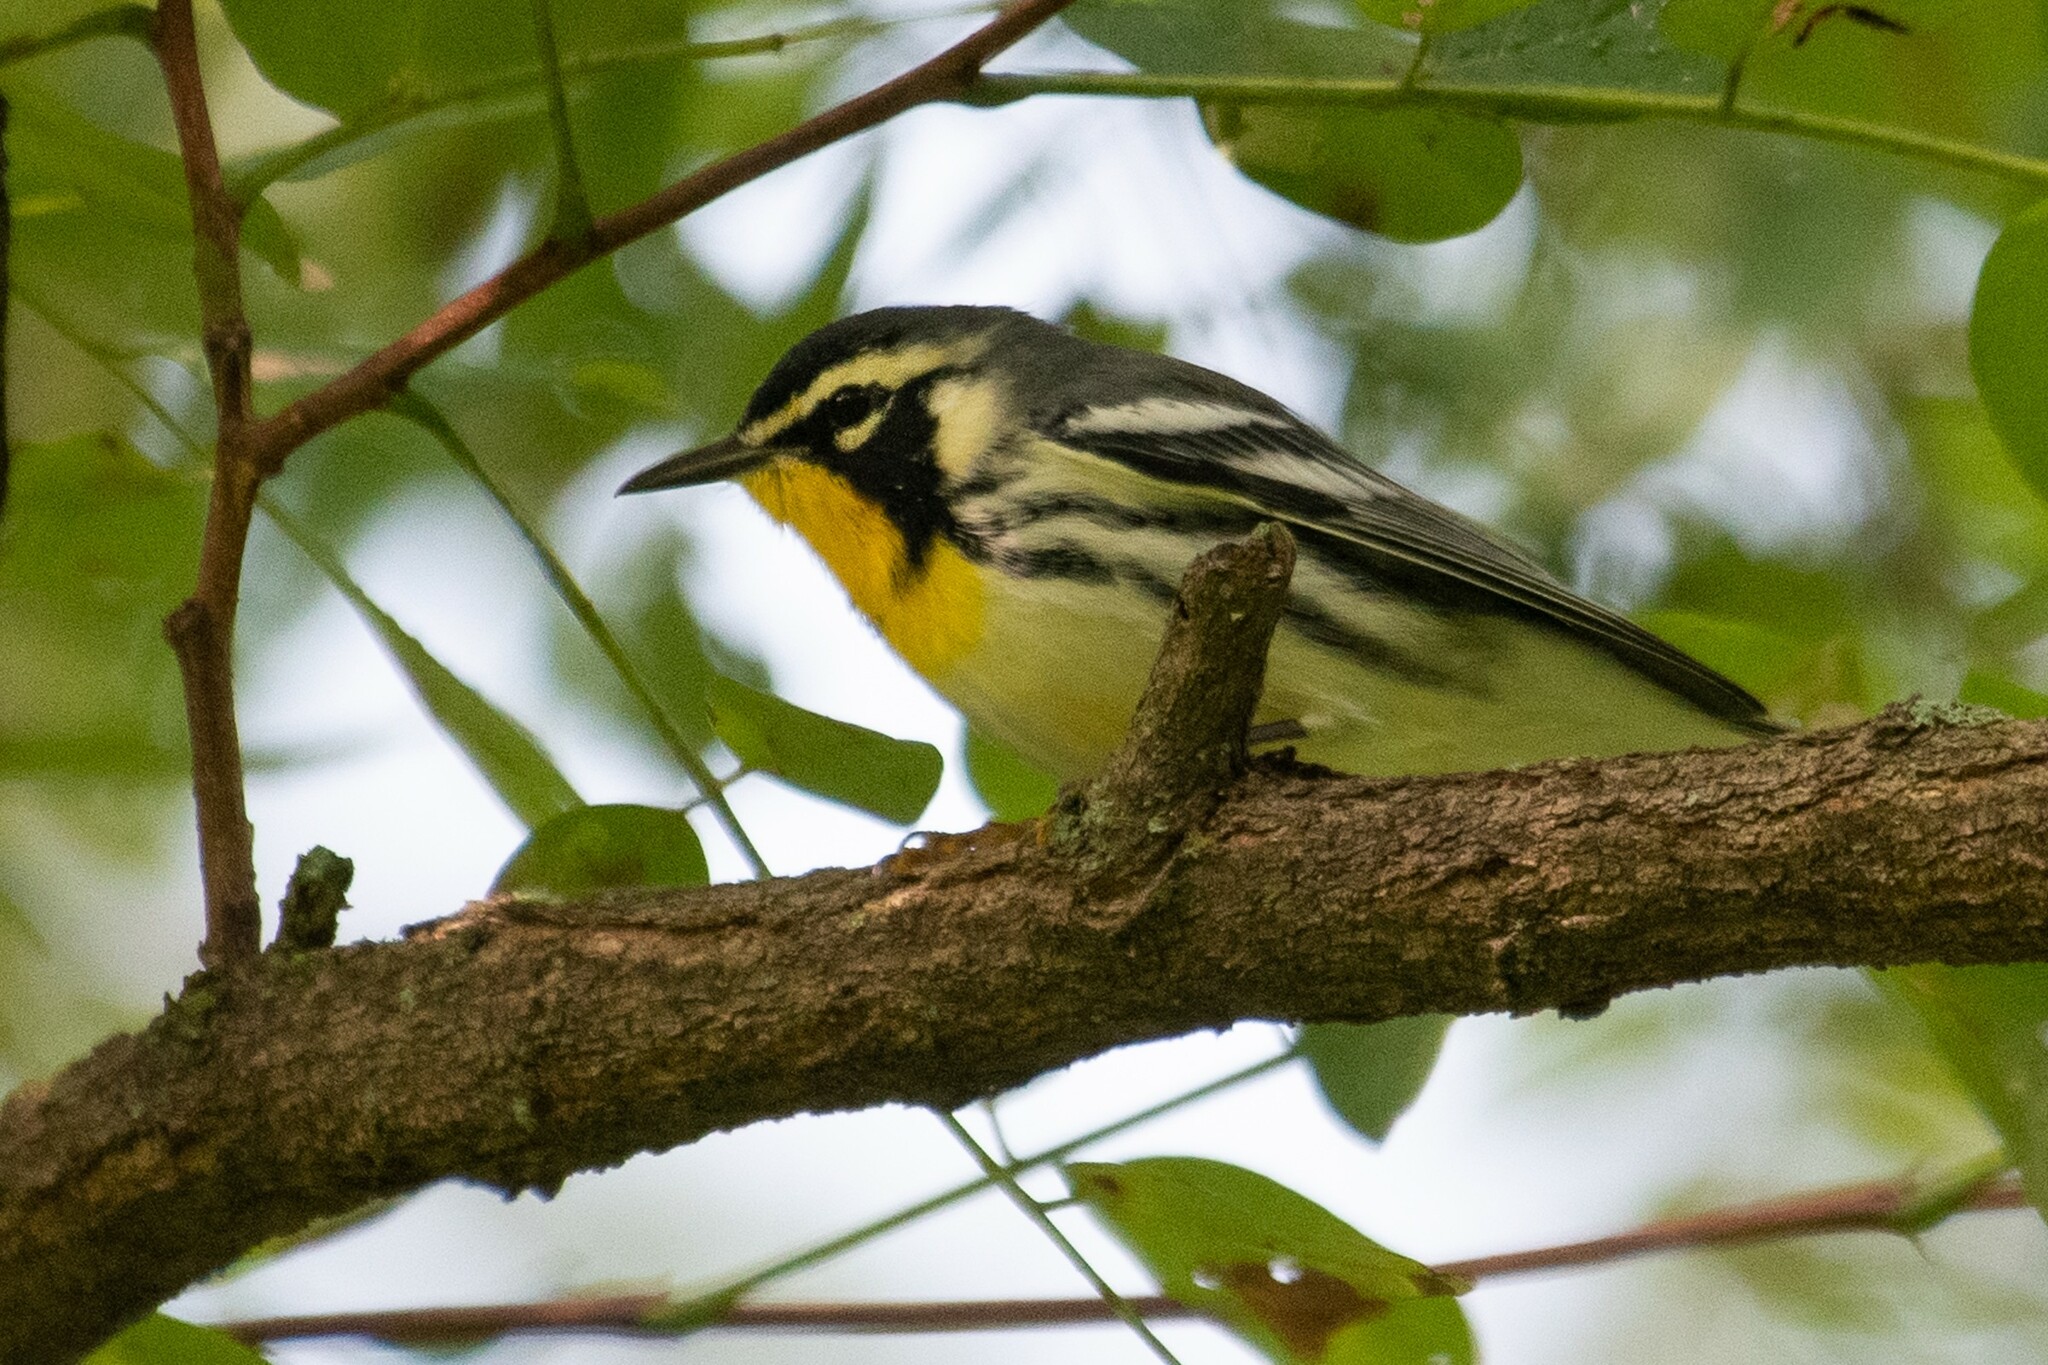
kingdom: Animalia
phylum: Chordata
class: Aves
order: Passeriformes
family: Parulidae
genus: Setophaga
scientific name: Setophaga dominica
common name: Yellow-throated warbler
